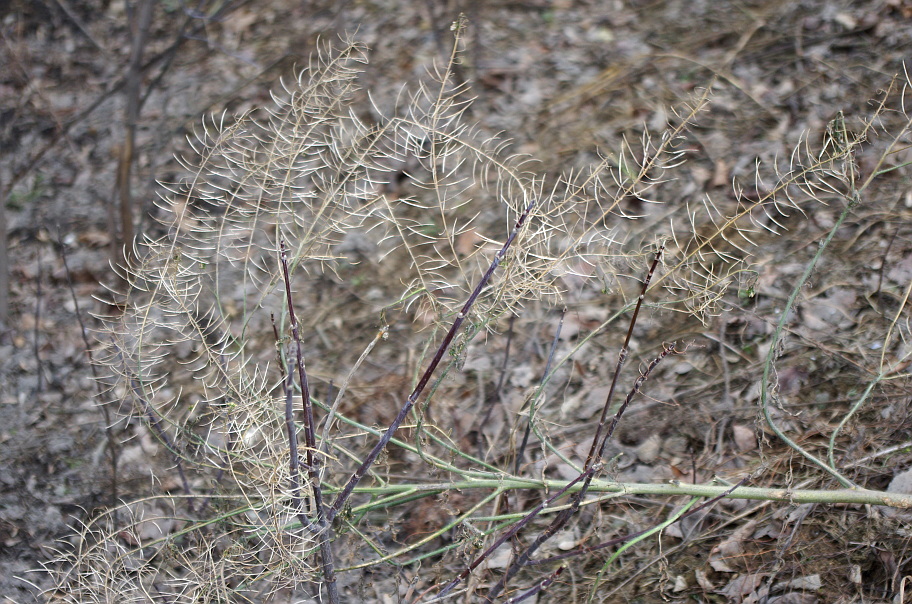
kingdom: Plantae
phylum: Tracheophyta
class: Magnoliopsida
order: Brassicales
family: Brassicaceae
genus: Sisymbrium
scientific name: Sisymbrium loeselii
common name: False london-rocket
